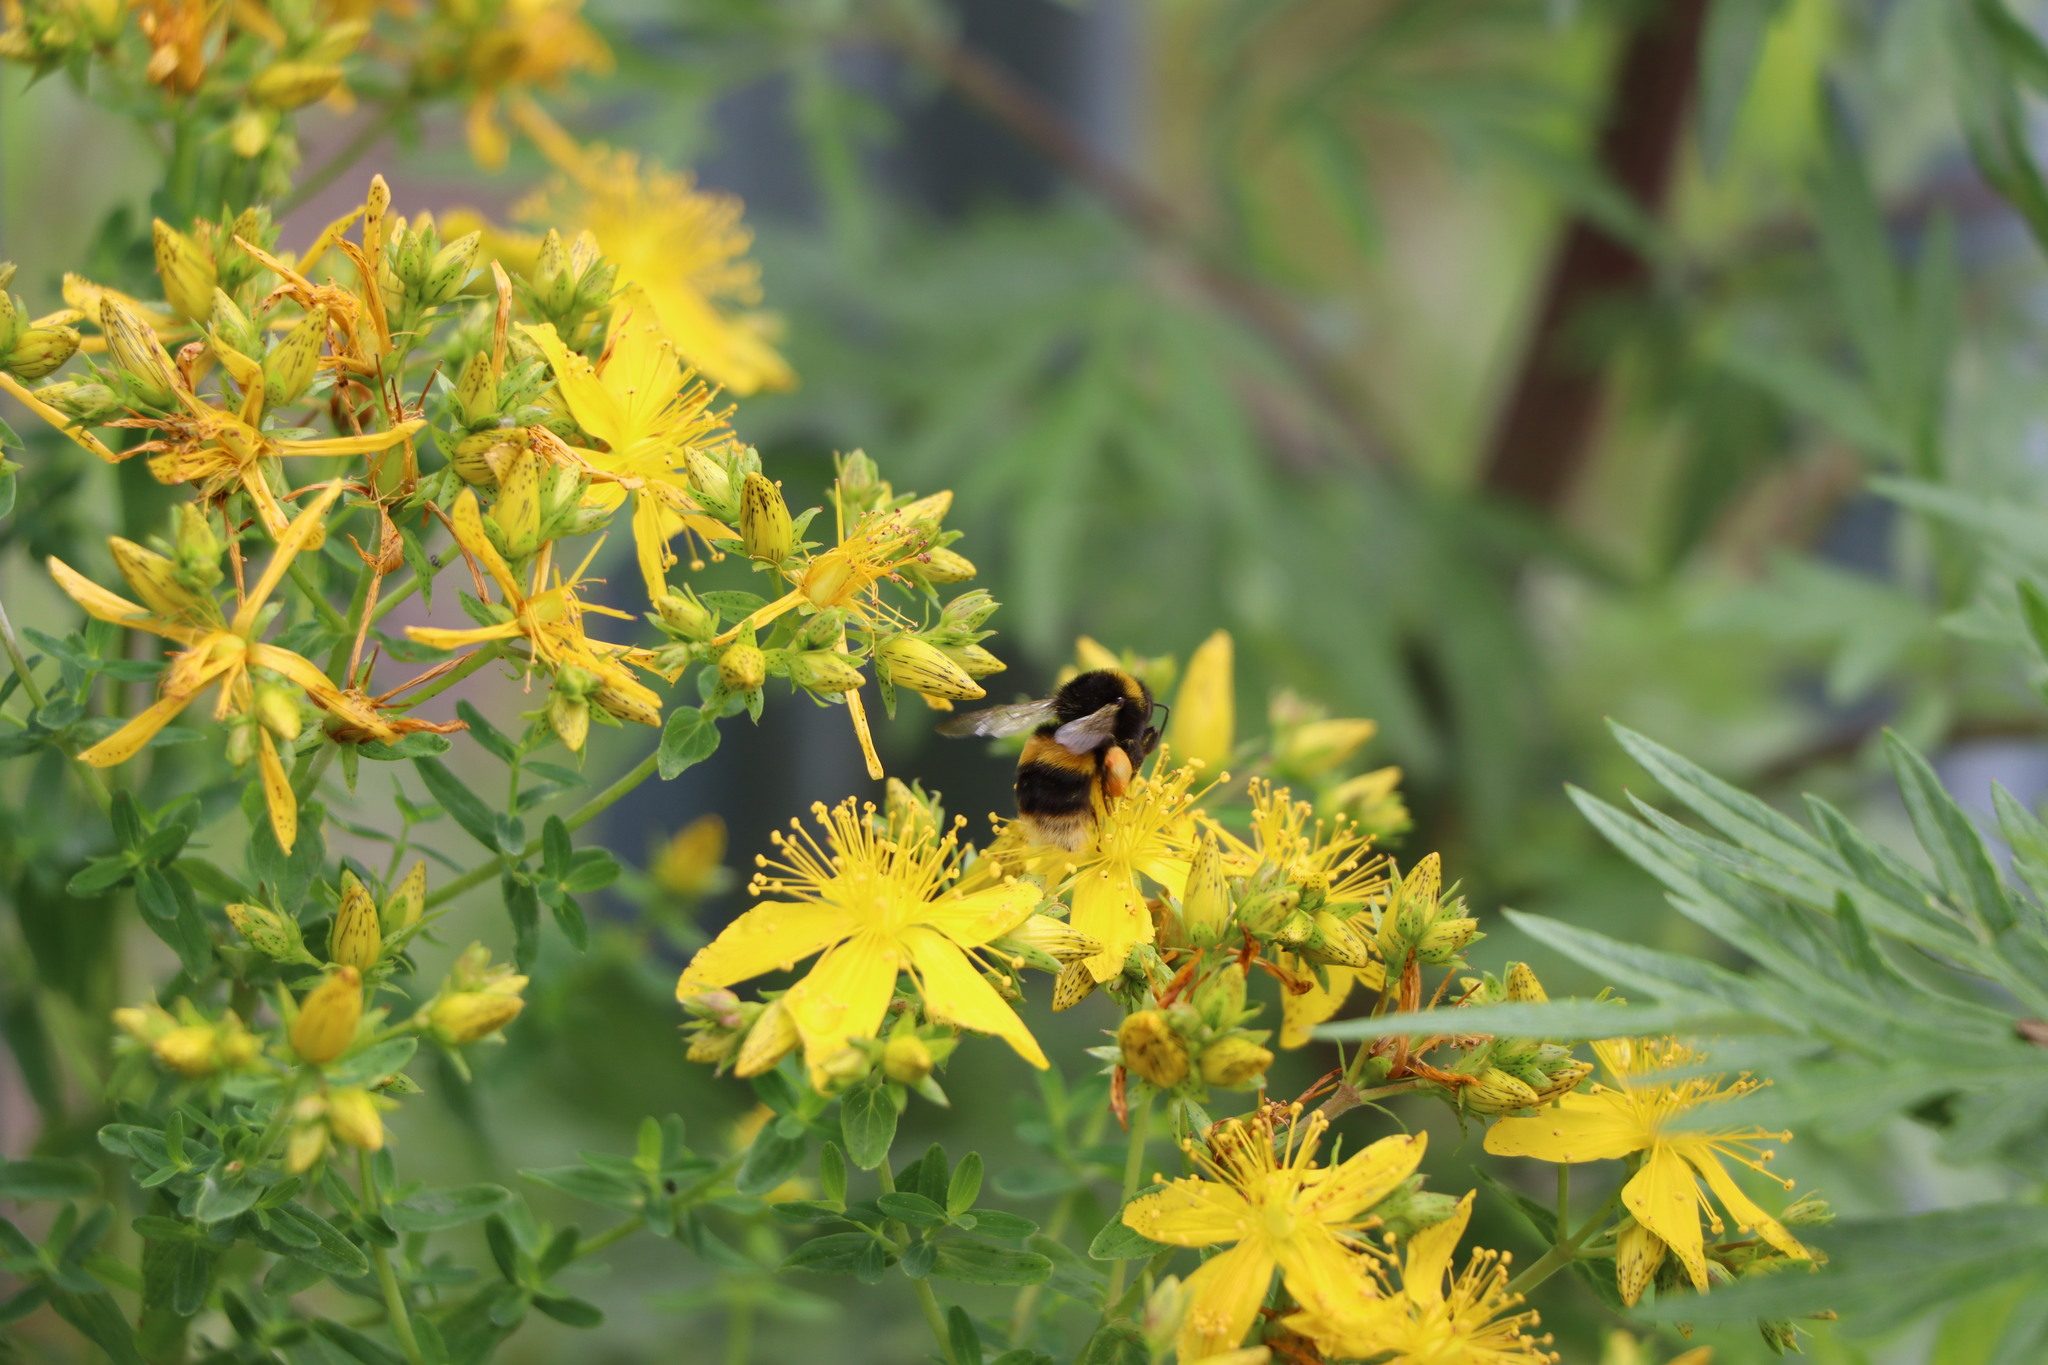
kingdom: Animalia
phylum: Arthropoda
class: Insecta
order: Hymenoptera
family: Apidae
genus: Bombus
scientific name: Bombus terrestris
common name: Buff-tailed bumblebee
